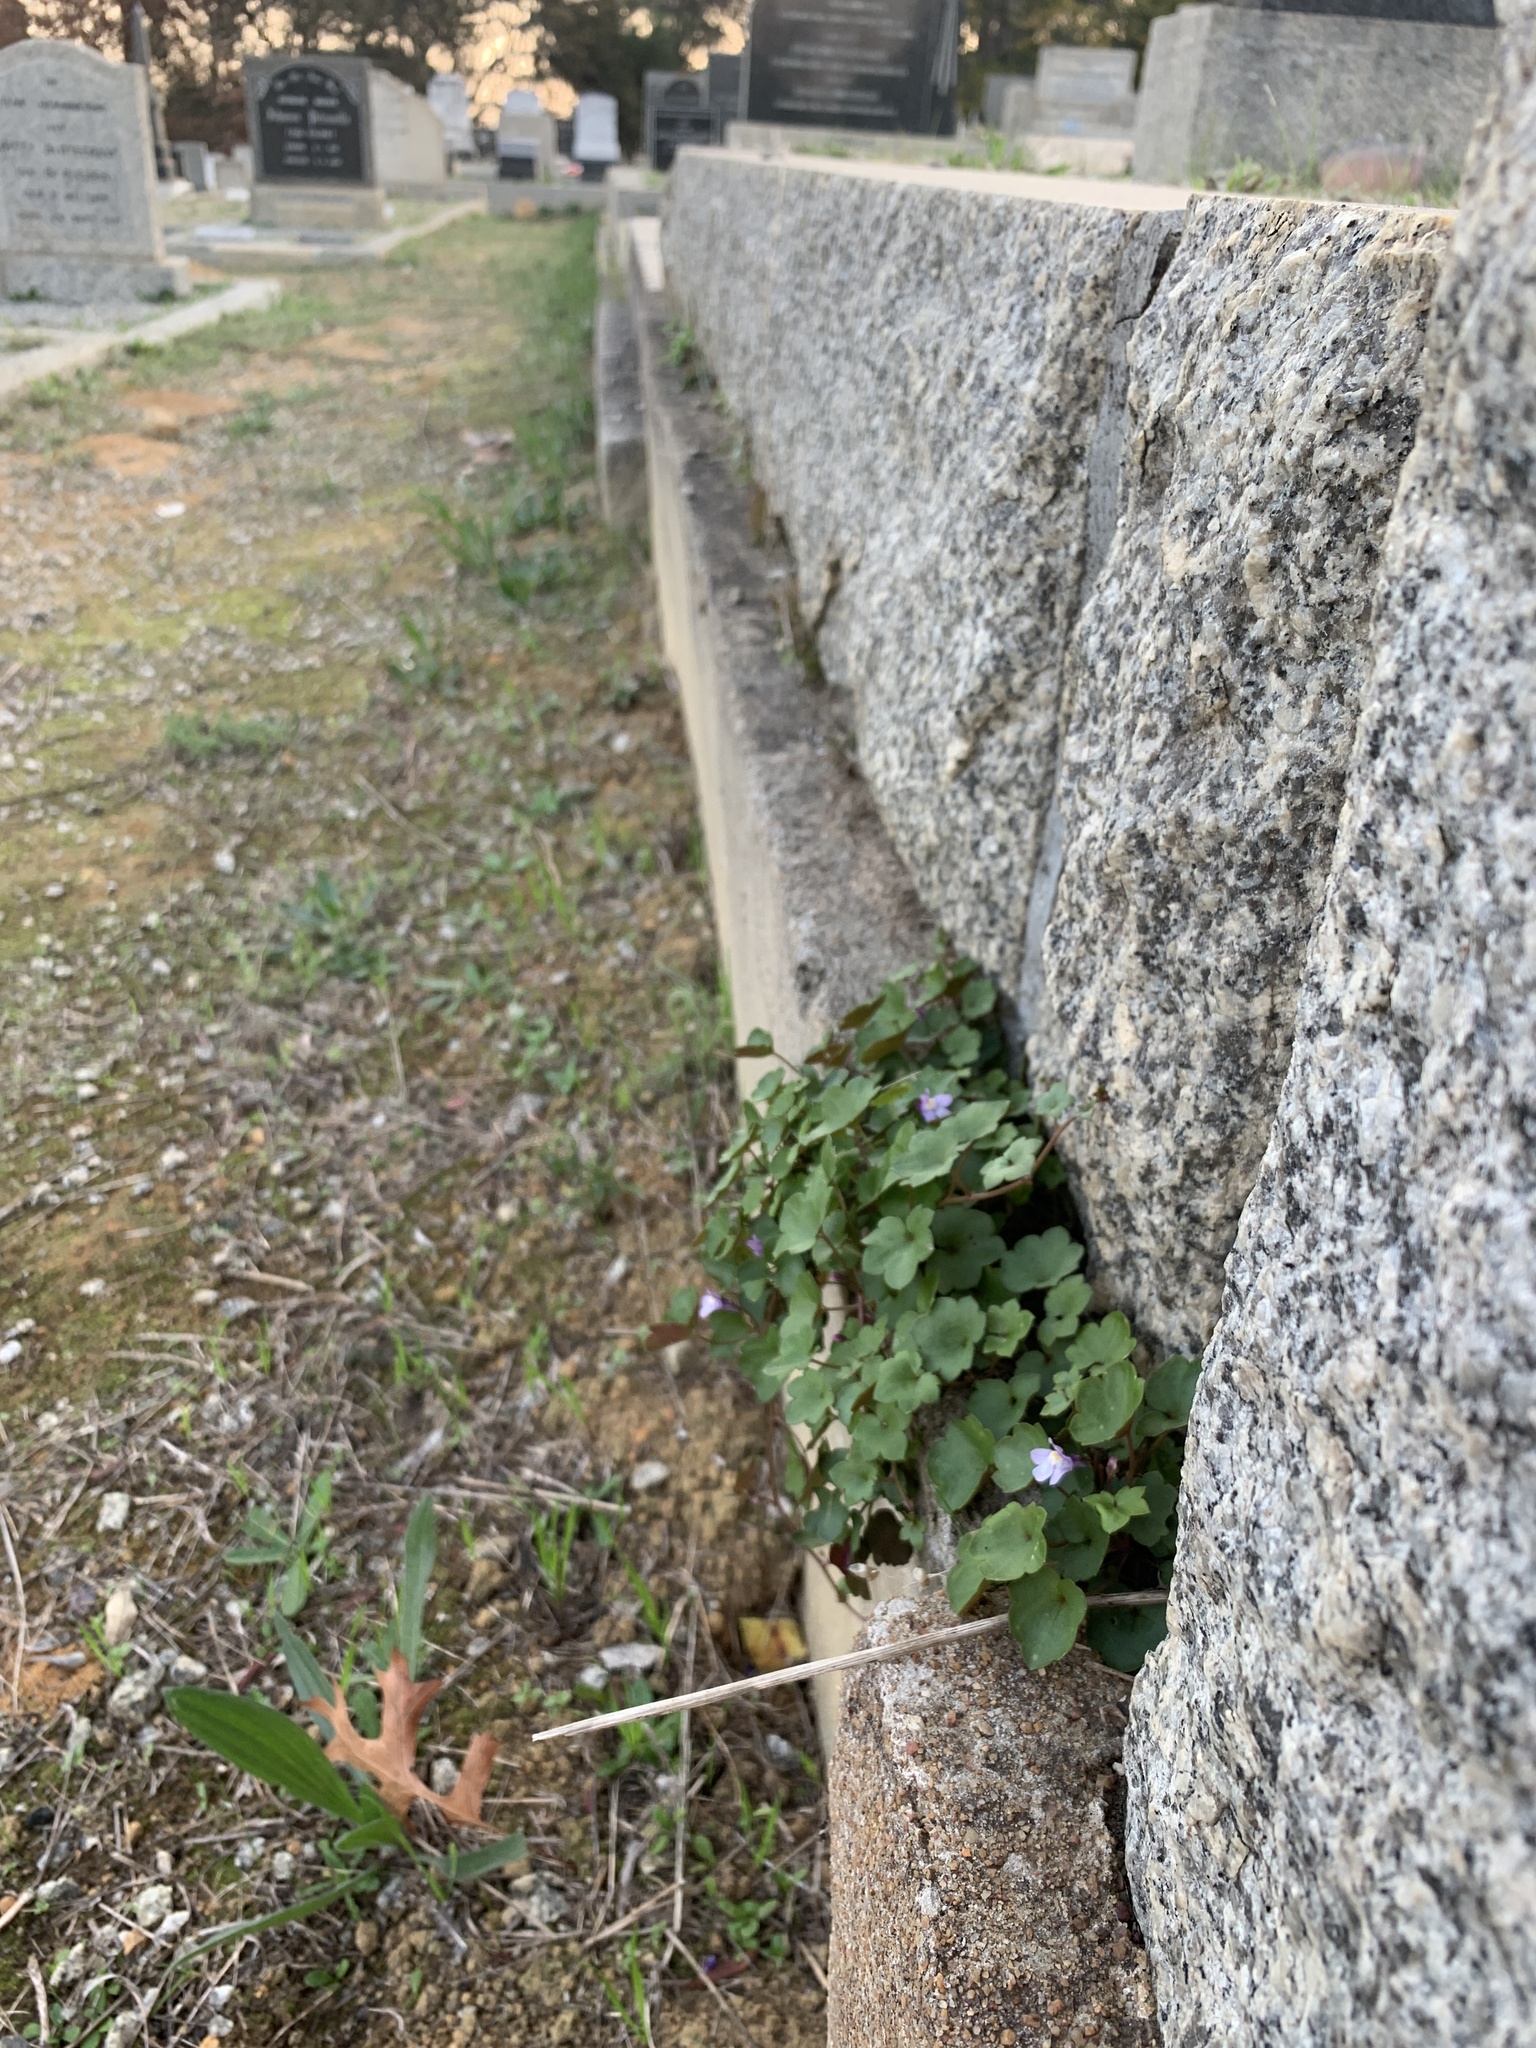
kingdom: Plantae
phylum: Tracheophyta
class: Magnoliopsida
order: Lamiales
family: Plantaginaceae
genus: Cymbalaria
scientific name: Cymbalaria muralis
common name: Ivy-leaved toadflax
